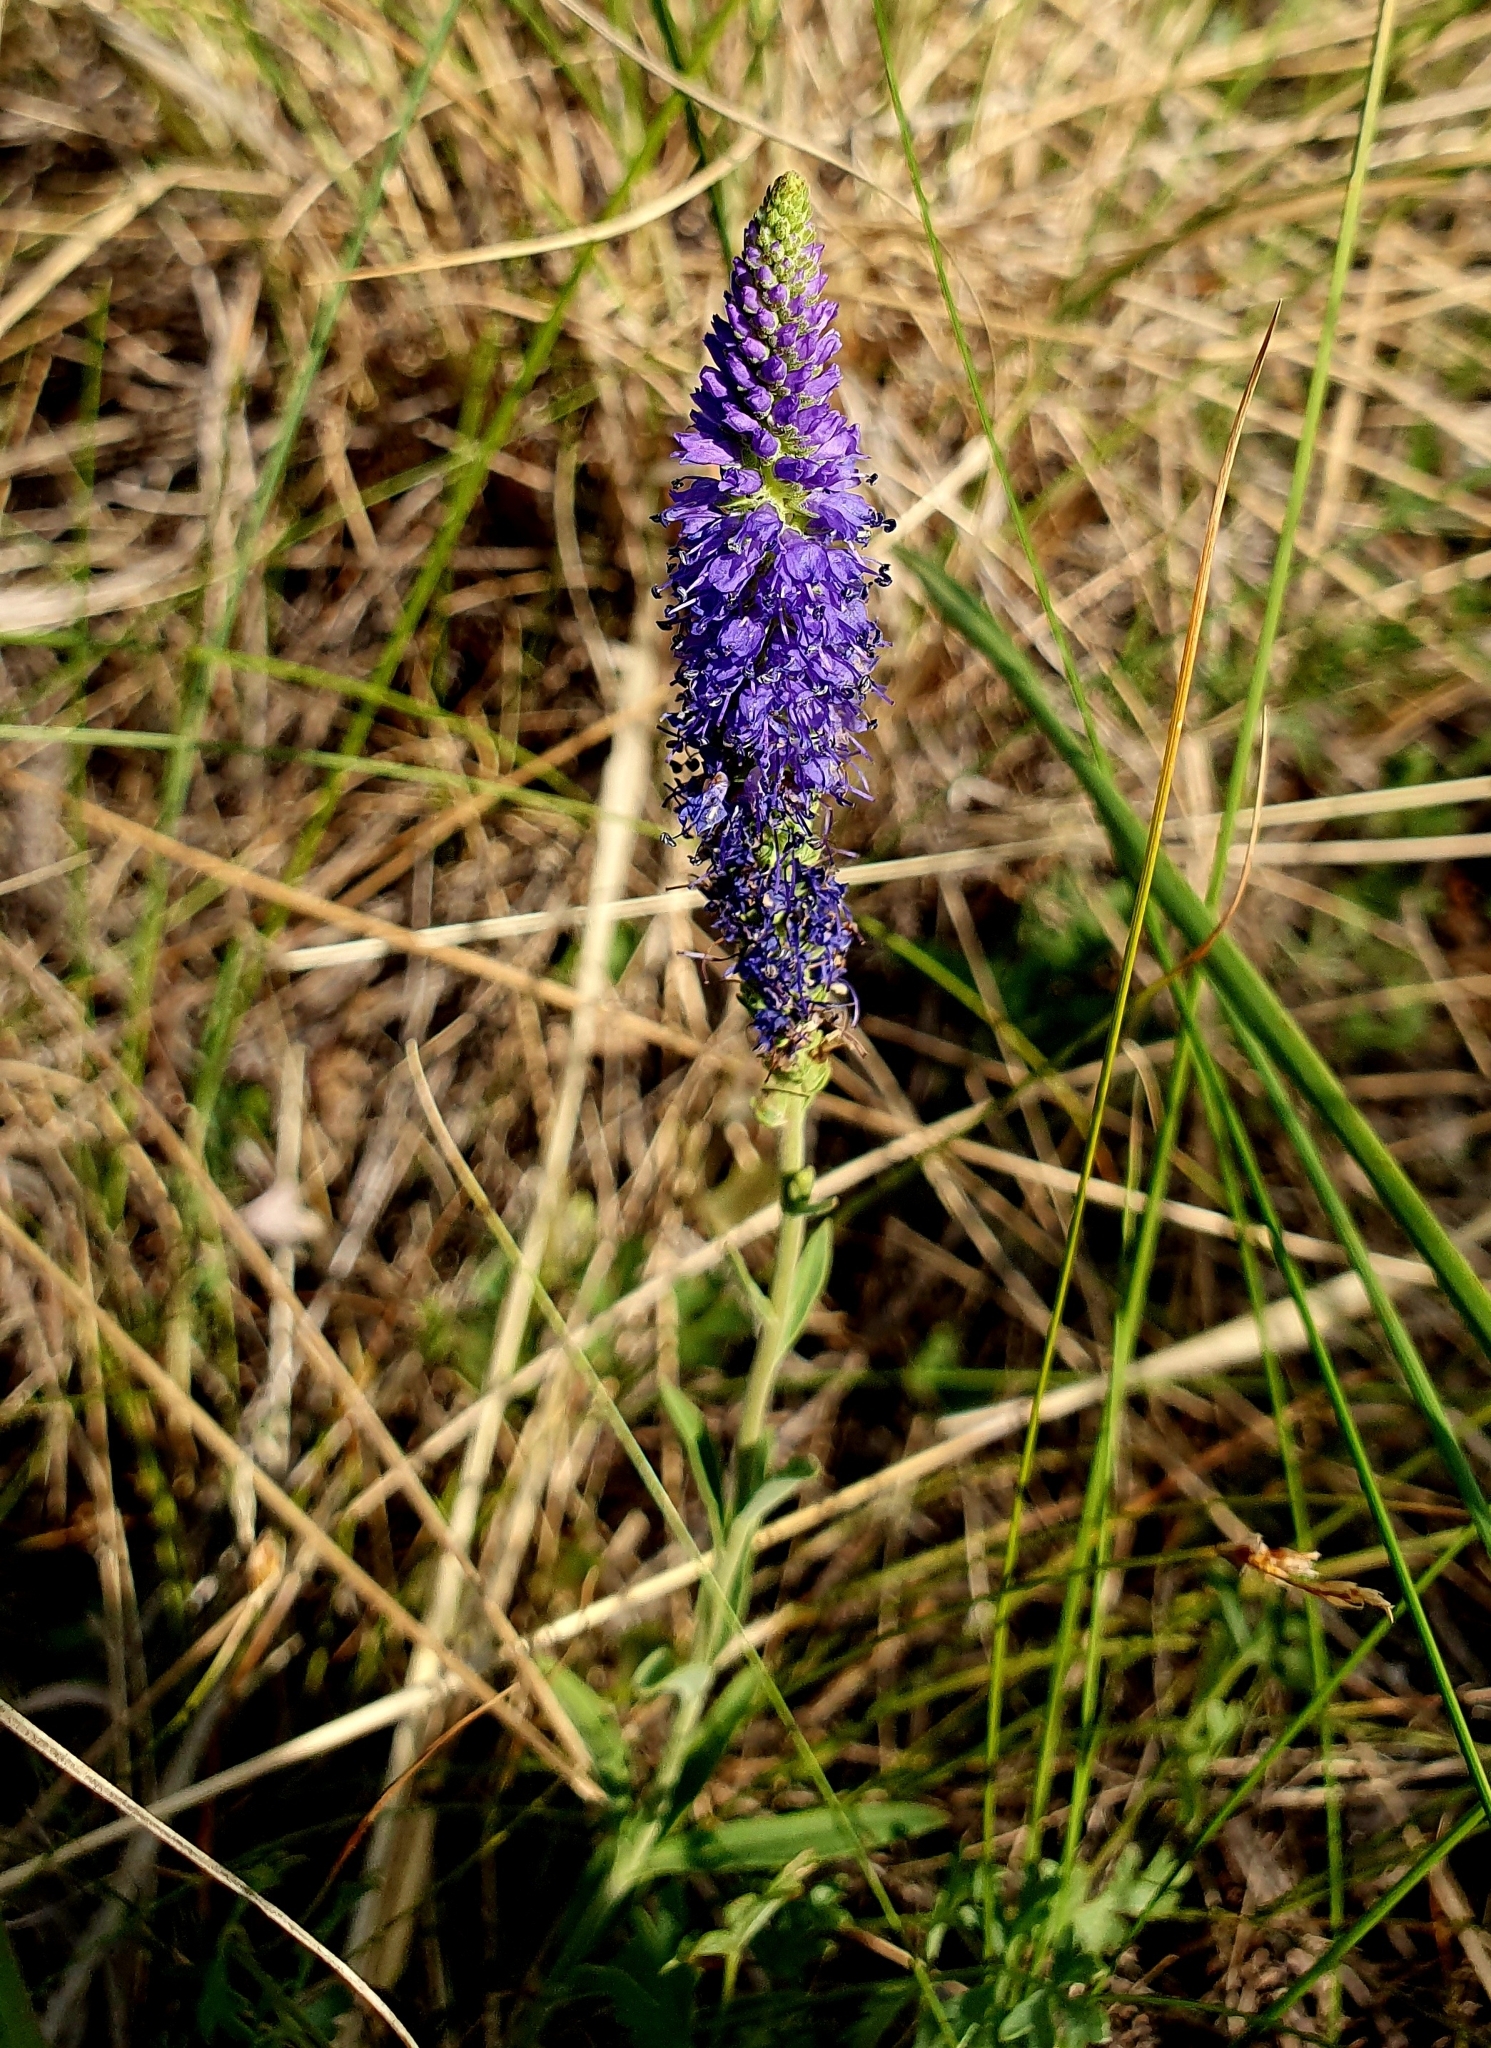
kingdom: Plantae
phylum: Tracheophyta
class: Magnoliopsida
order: Lamiales
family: Plantaginaceae
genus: Veronica
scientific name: Veronica spicata
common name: Spiked speedwell
